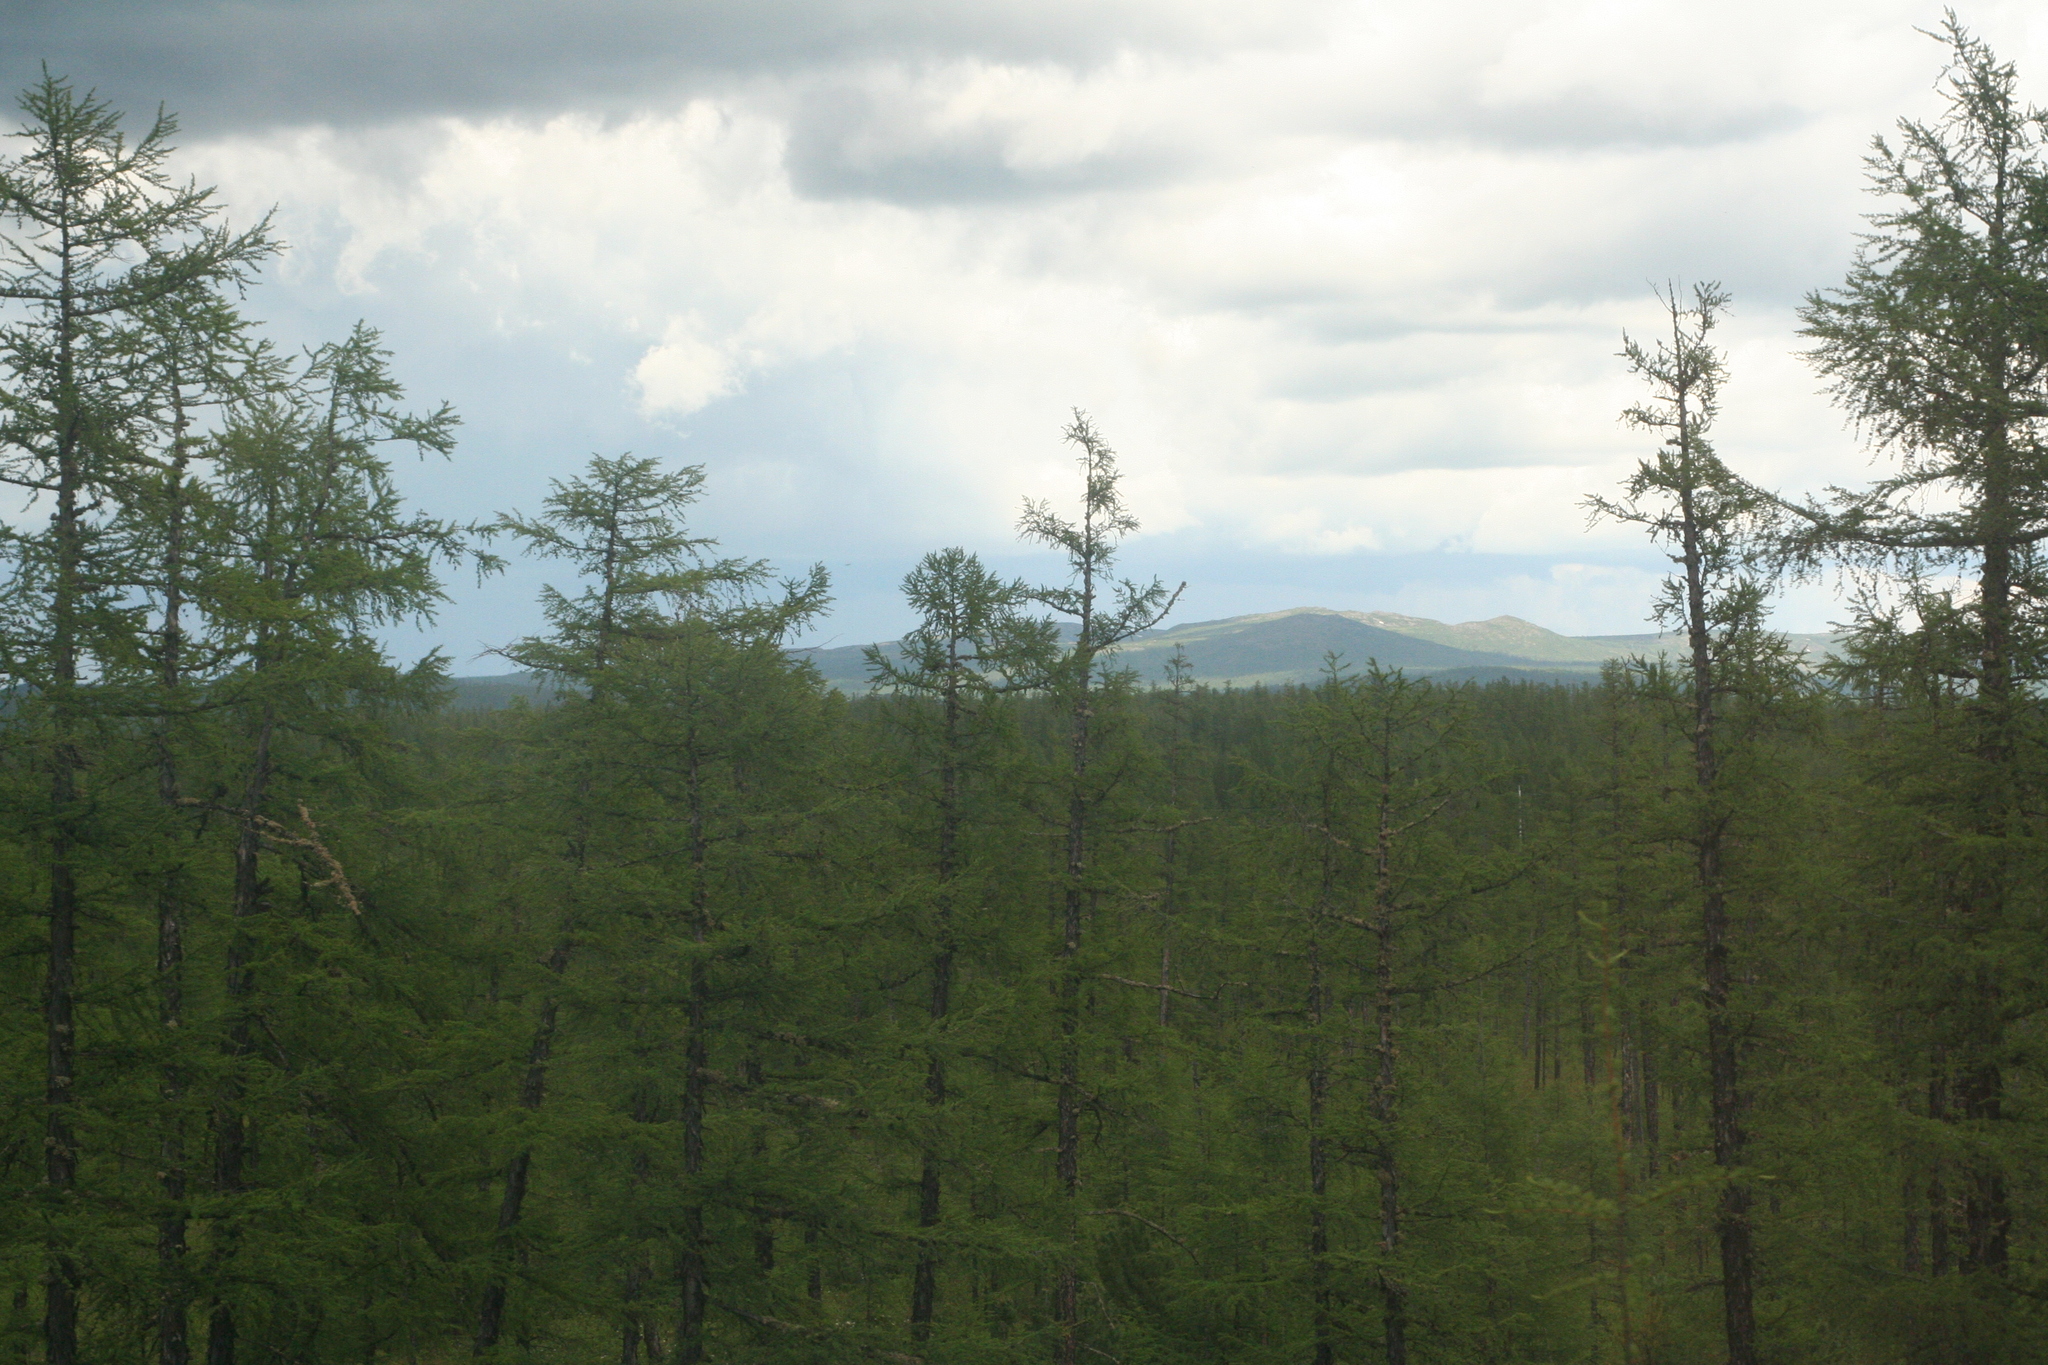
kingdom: Plantae
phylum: Tracheophyta
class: Pinopsida
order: Pinales
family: Pinaceae
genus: Larix
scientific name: Larix gmelinii
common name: Dahurian larch
